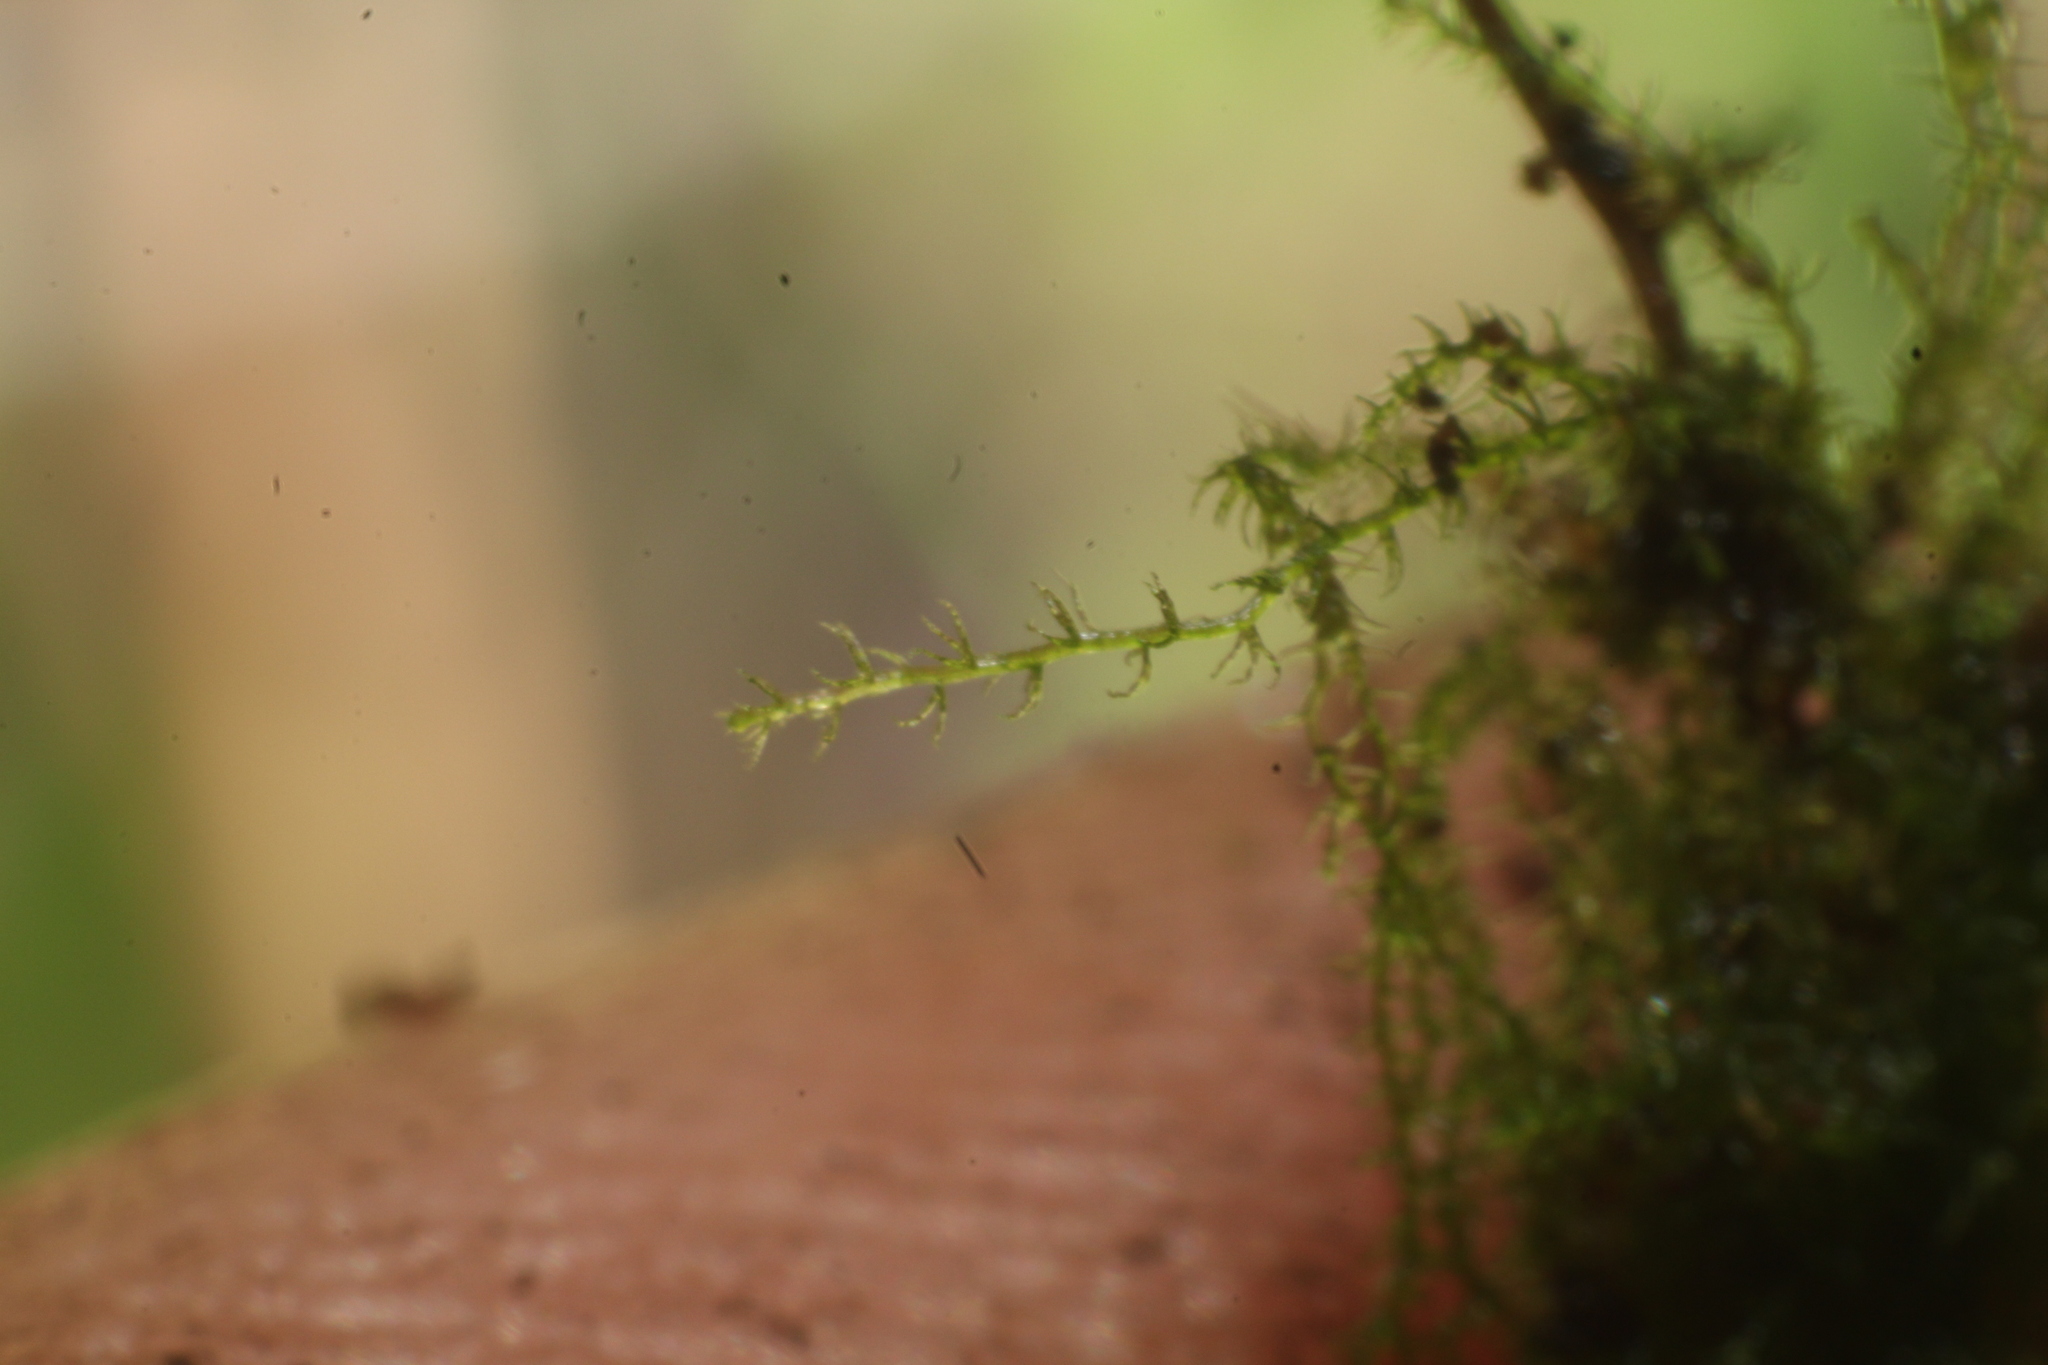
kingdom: Plantae
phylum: Marchantiophyta
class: Jungermanniopsida
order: Jungermanniales
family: Lepidoziaceae
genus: Paracromastigum
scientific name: Paracromastigum longiscyphum
